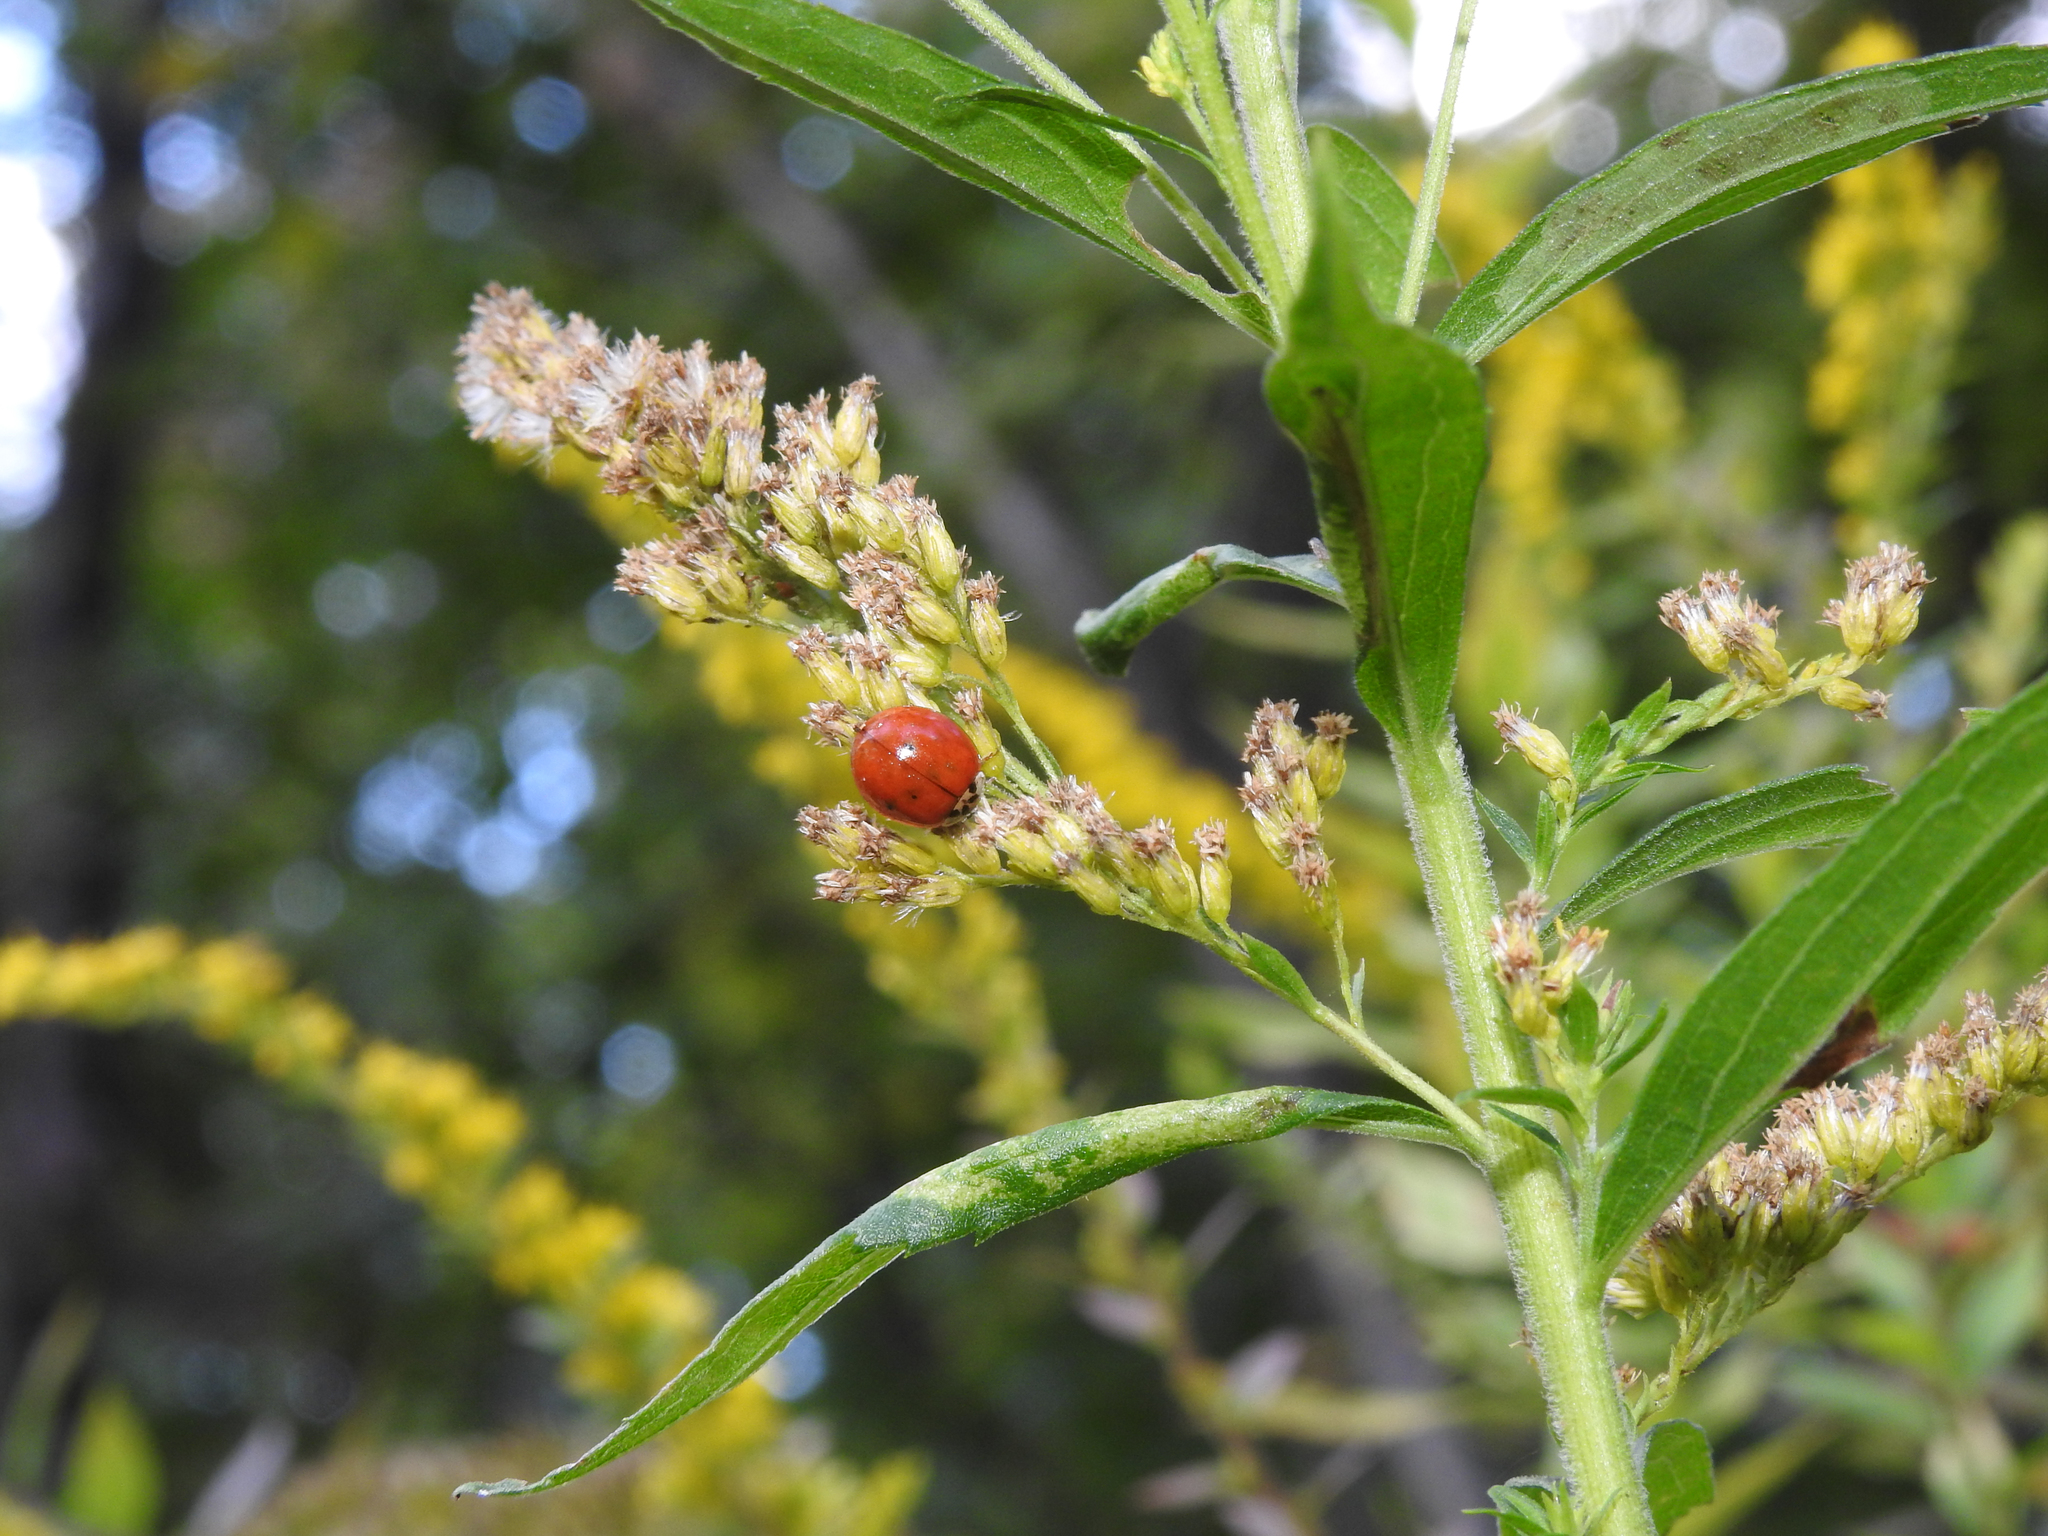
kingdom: Animalia
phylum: Arthropoda
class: Insecta
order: Coleoptera
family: Coccinellidae
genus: Harmonia
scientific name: Harmonia axyridis
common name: Harlequin ladybird
